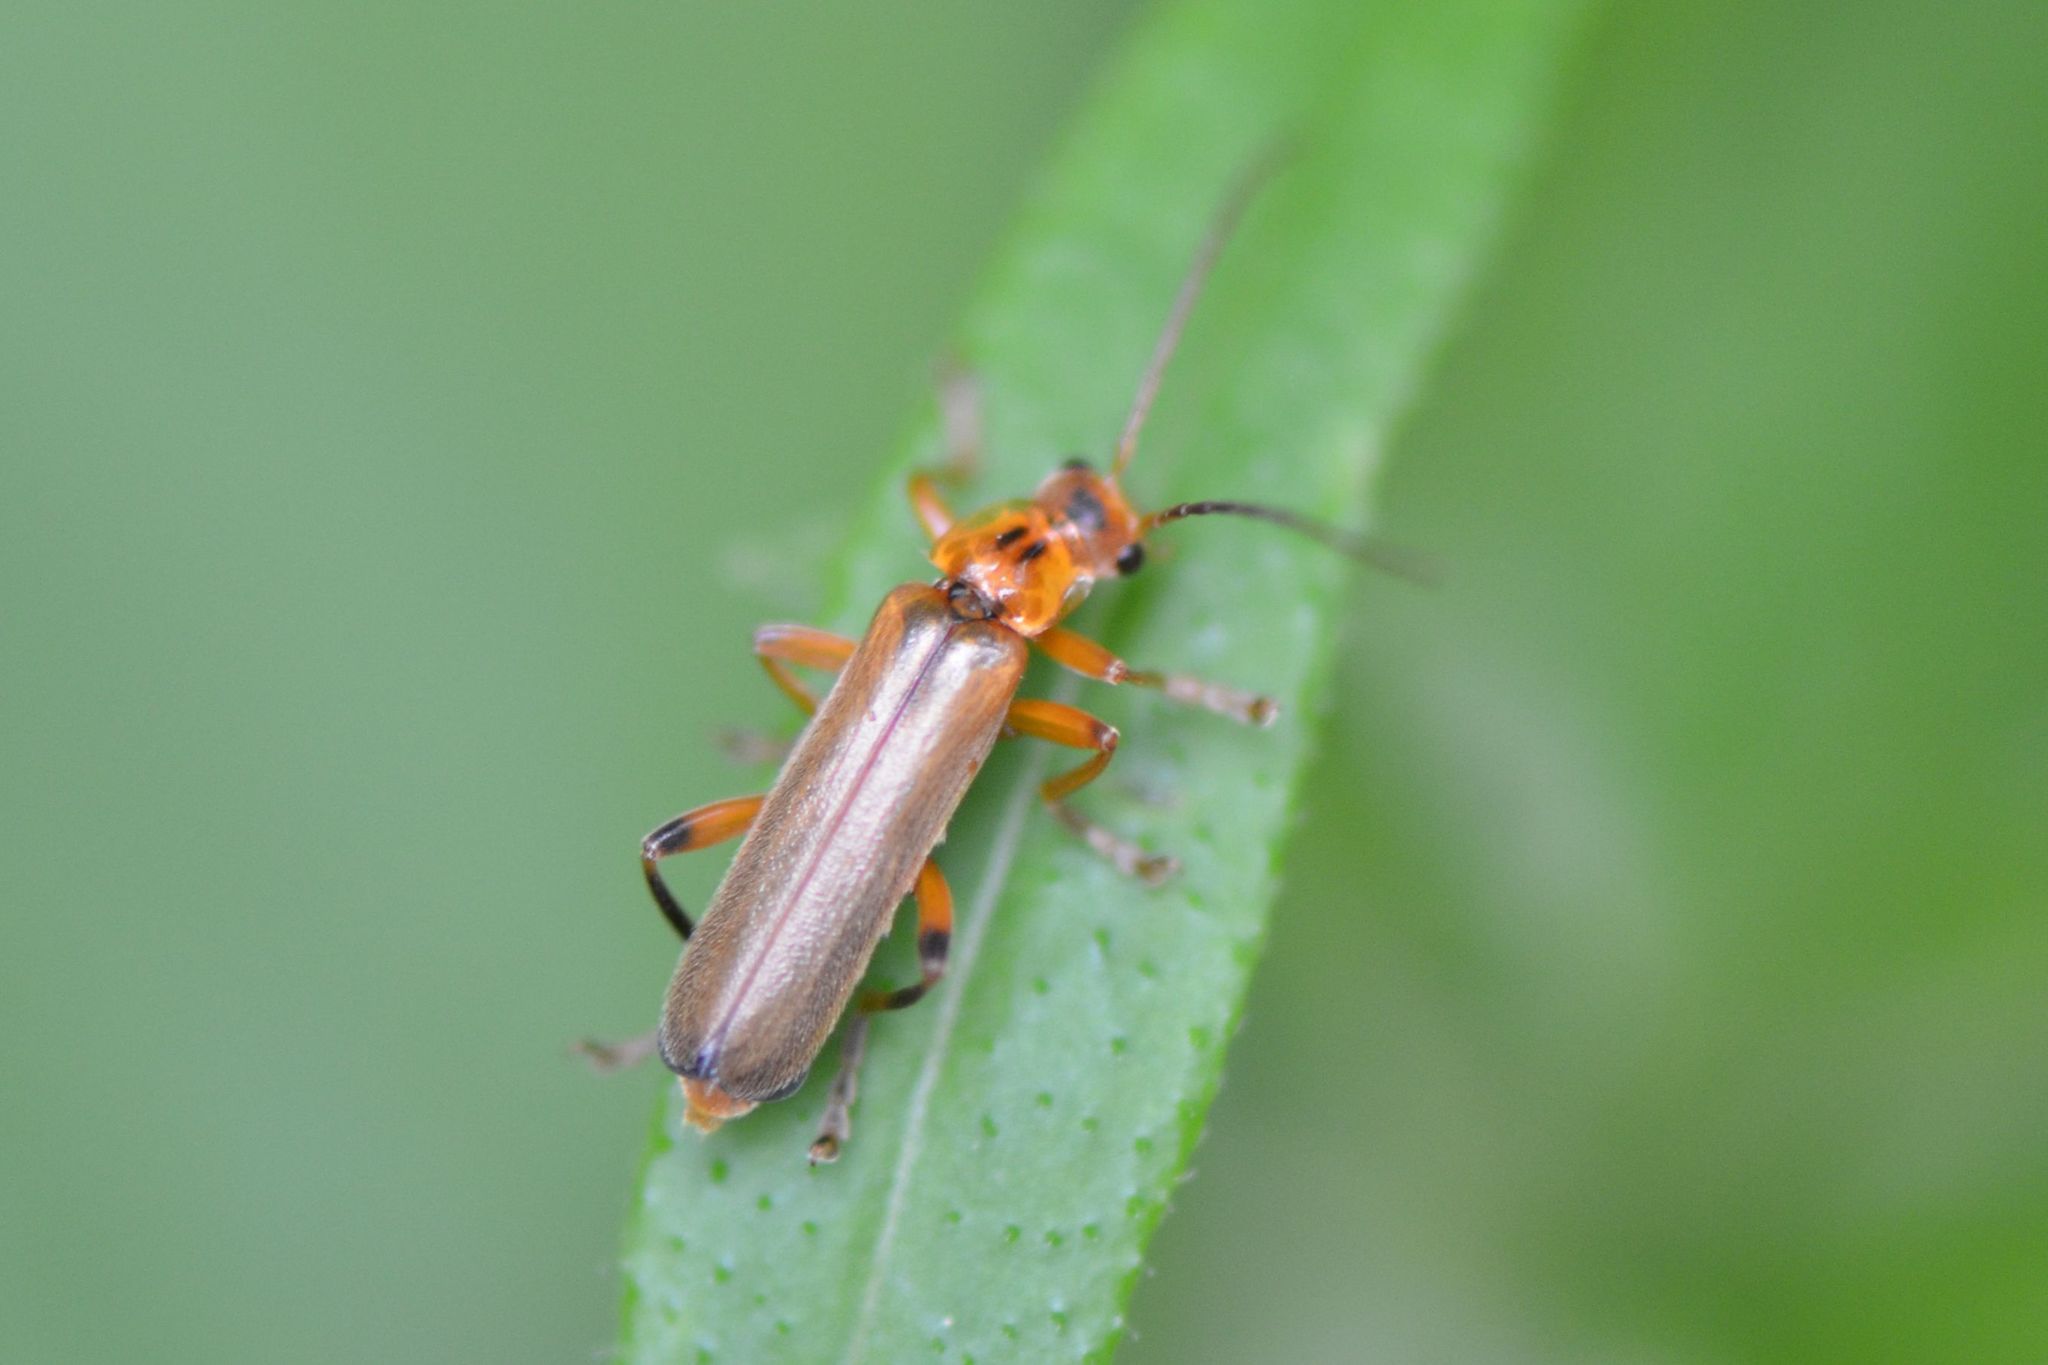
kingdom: Animalia
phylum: Arthropoda
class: Insecta
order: Coleoptera
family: Cantharidae
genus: Metacantharis
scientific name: Metacantharis discoidea
